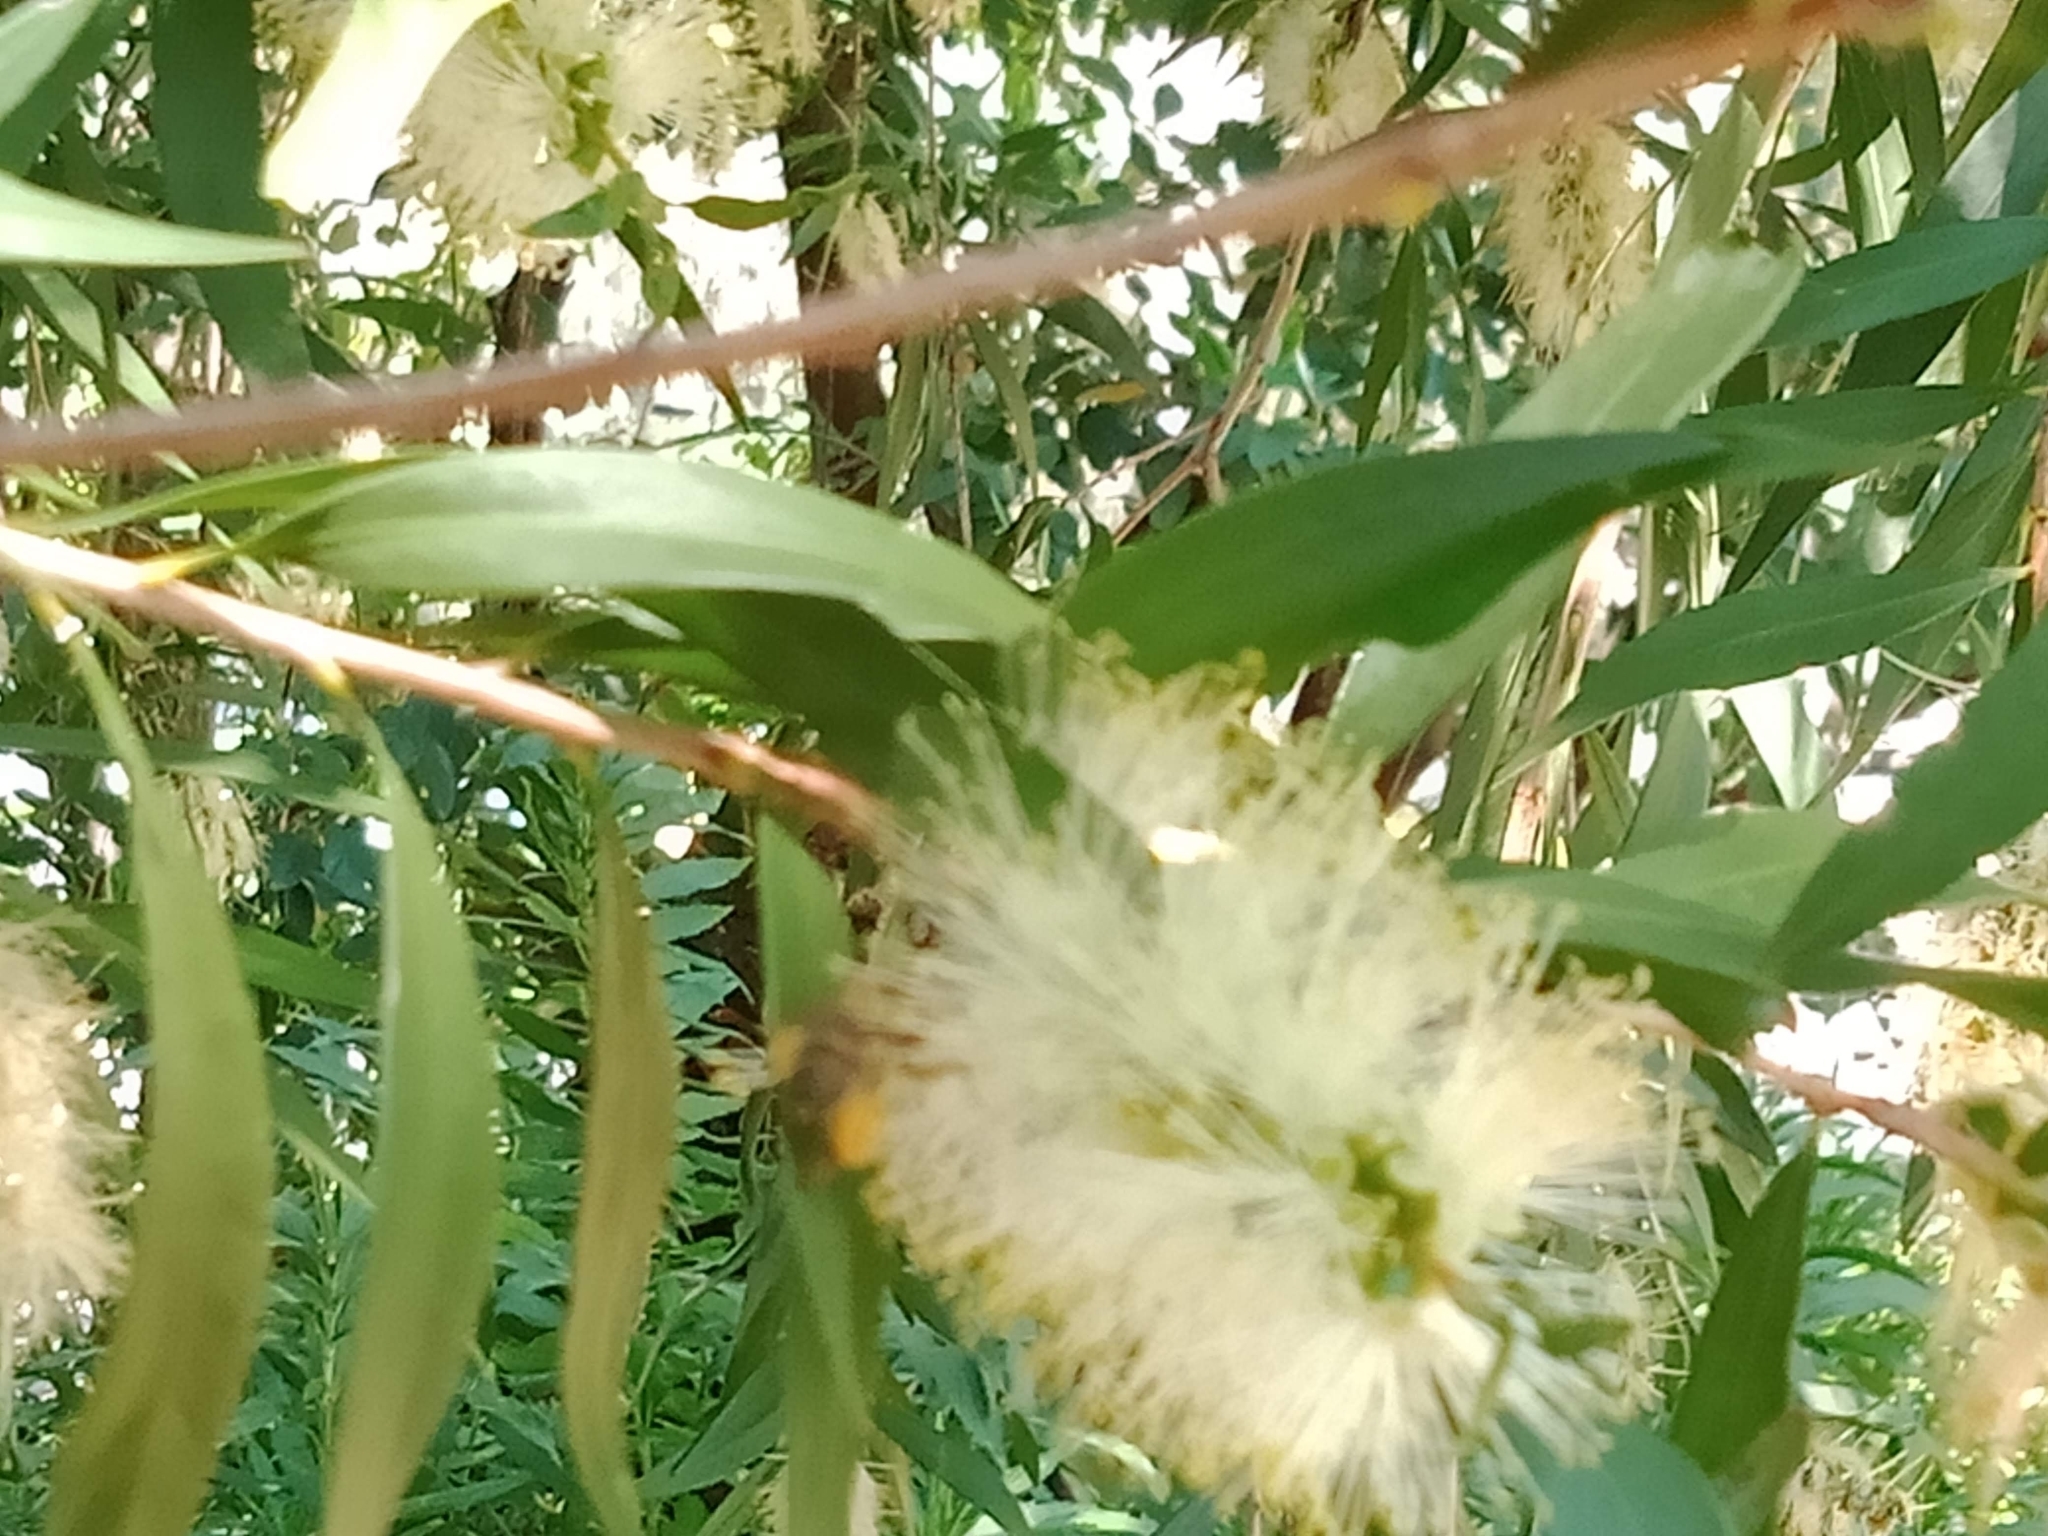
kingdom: Animalia
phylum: Arthropoda
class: Insecta
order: Hymenoptera
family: Apidae
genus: Apis
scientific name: Apis mellifera
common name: Honey bee
